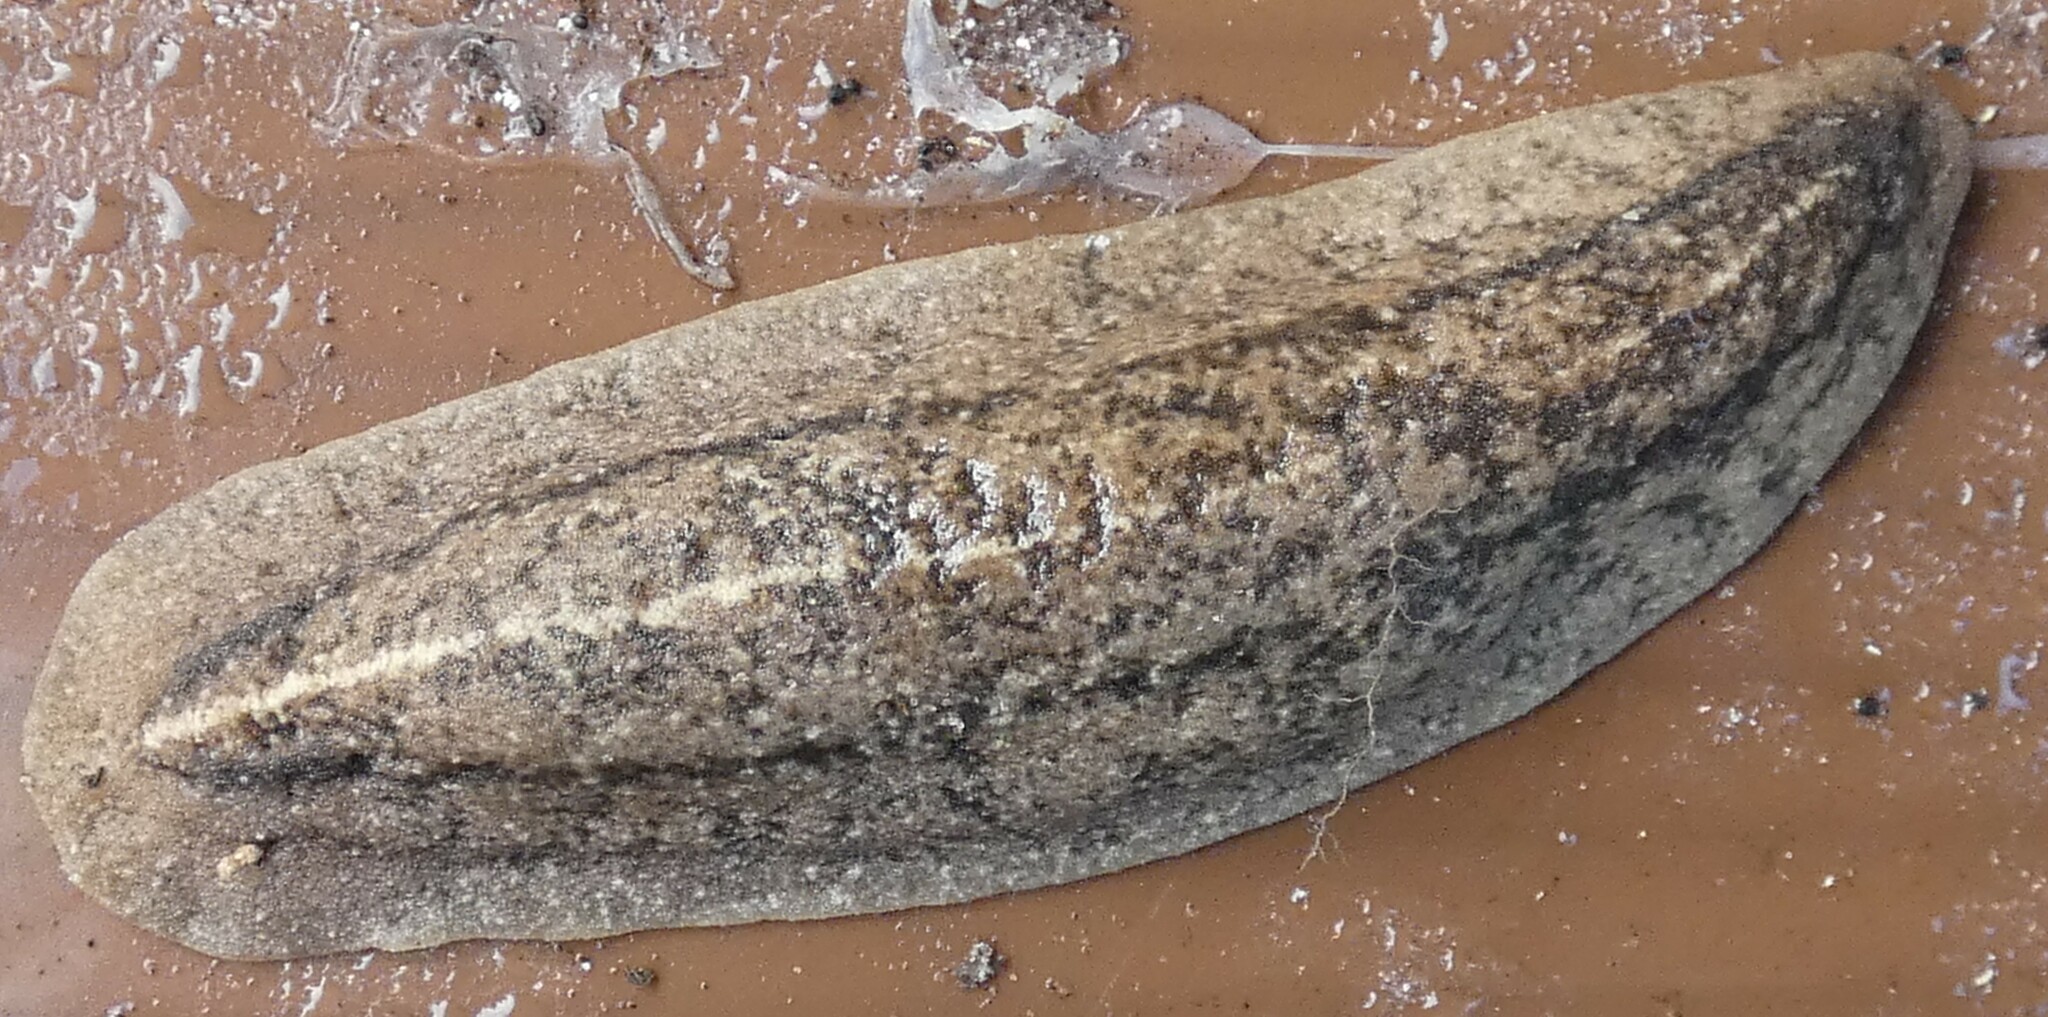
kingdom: Animalia
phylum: Mollusca
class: Gastropoda
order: Systellommatophora
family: Veronicellidae
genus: Leidyula
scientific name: Leidyula floridana
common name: Florida leatherleaf
